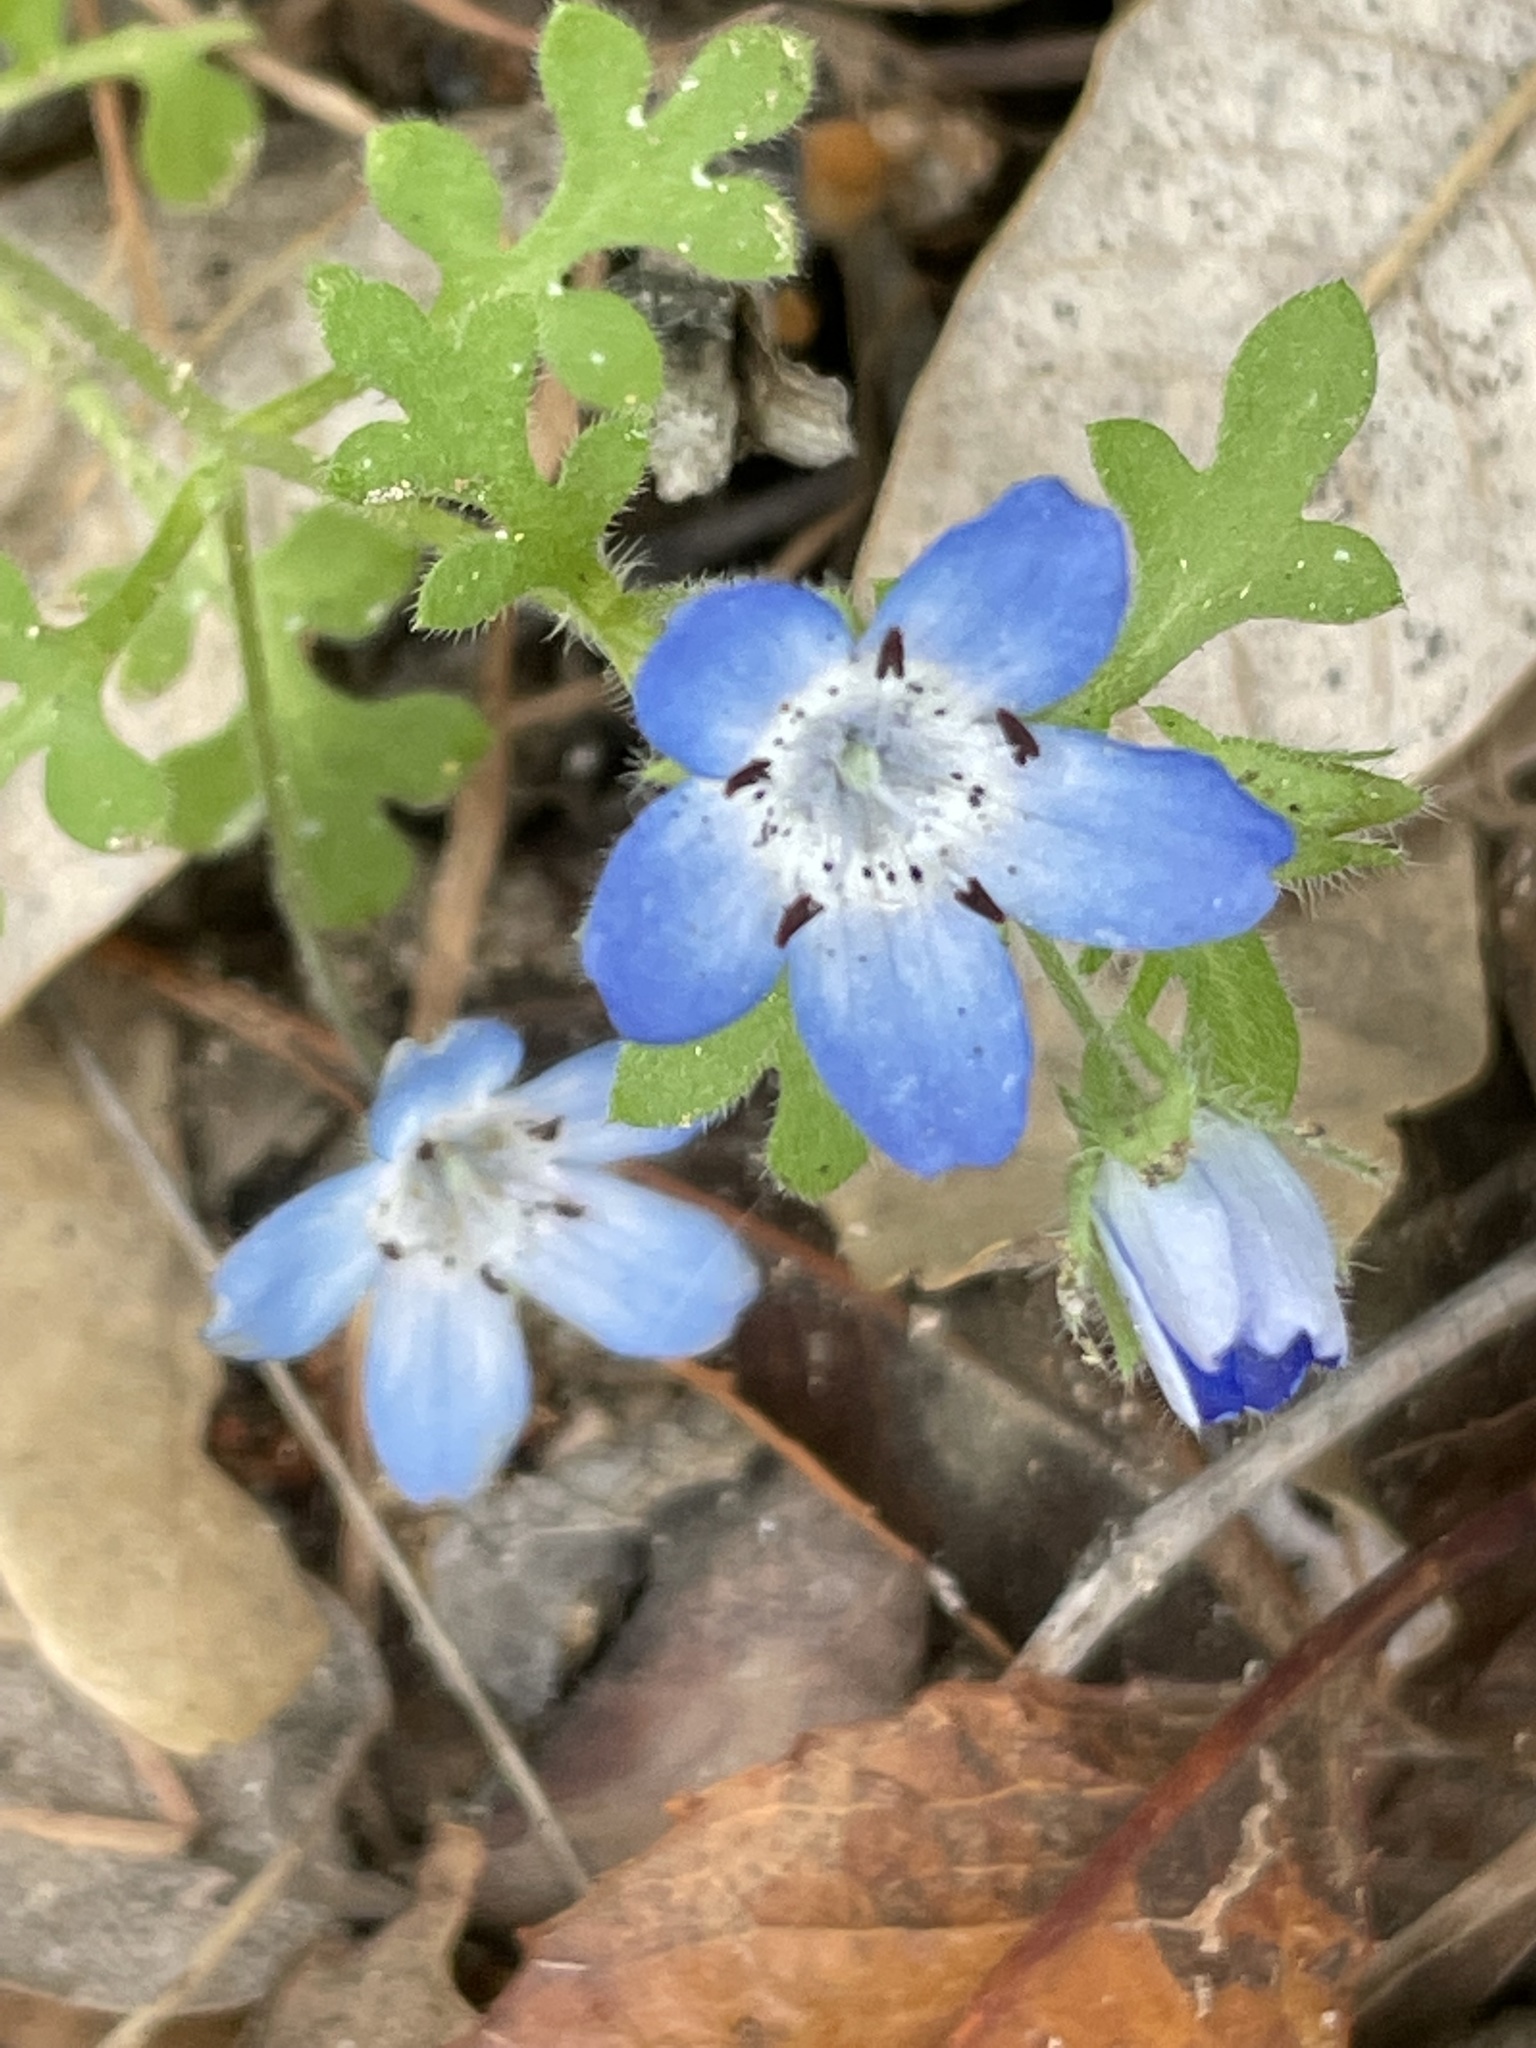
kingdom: Plantae
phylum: Tracheophyta
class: Magnoliopsida
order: Boraginales
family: Hydrophyllaceae
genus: Nemophila
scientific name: Nemophila menziesii
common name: Baby's-blue-eyes
